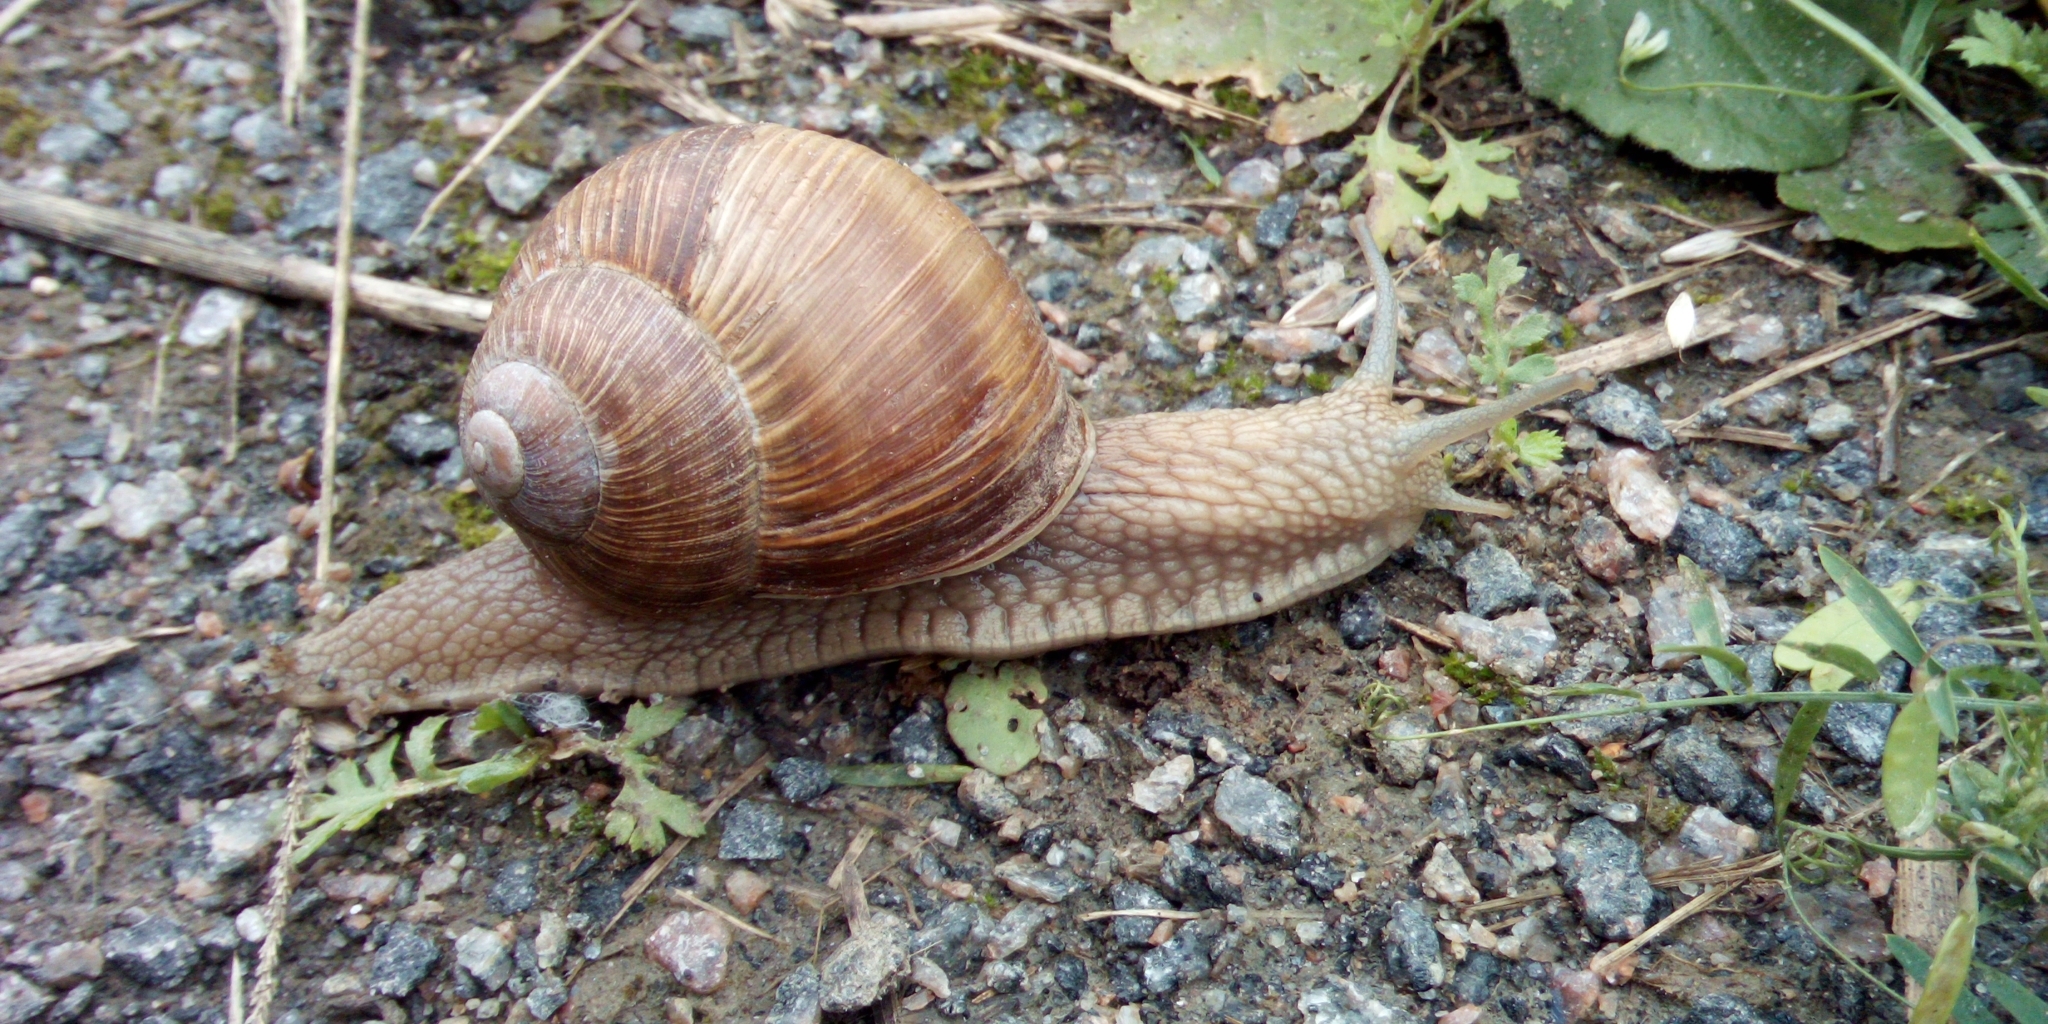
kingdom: Animalia
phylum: Mollusca
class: Gastropoda
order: Stylommatophora
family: Helicidae
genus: Helix
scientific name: Helix pomatia
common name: Roman snail
